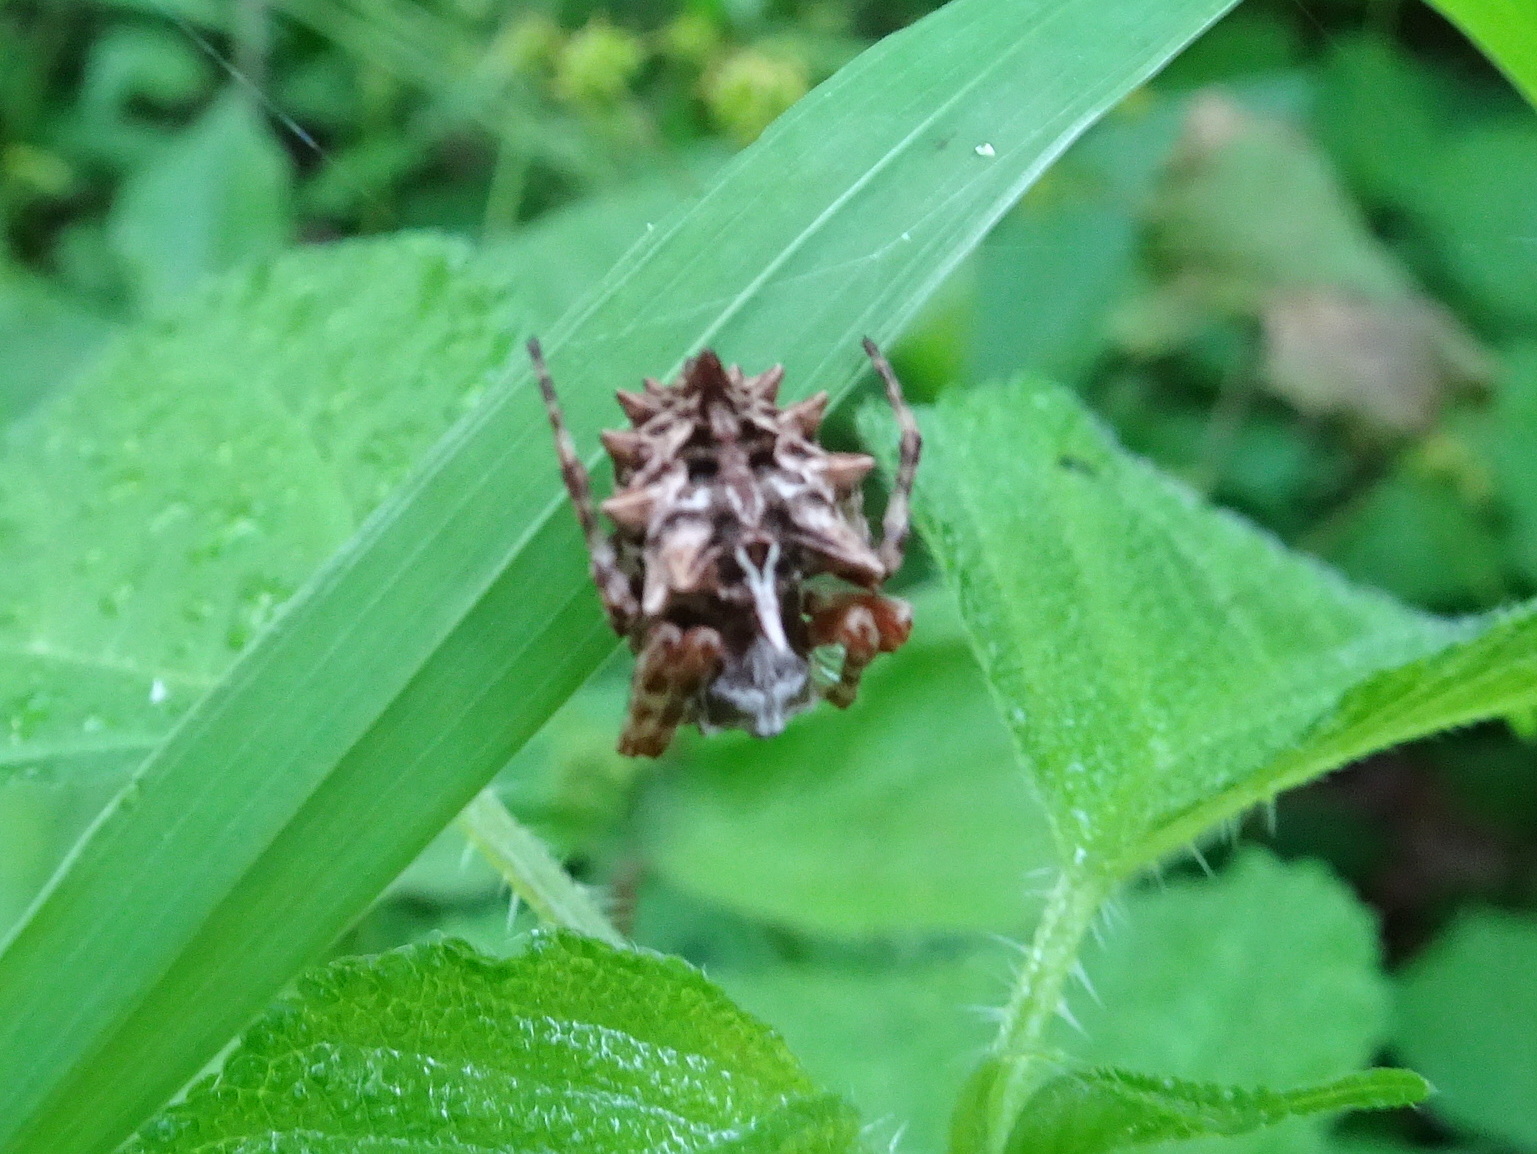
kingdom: Animalia
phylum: Arthropoda
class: Arachnida
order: Araneae
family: Araneidae
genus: Acanthepeira
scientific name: Acanthepeira stellata
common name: Starbellied orbweaver
